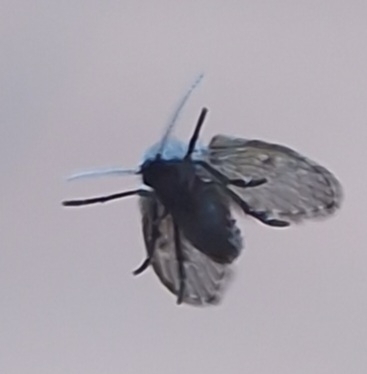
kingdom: Animalia
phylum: Arthropoda
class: Insecta
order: Diptera
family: Psychodidae
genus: Clogmia
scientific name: Clogmia albipunctatus
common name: White-spotted moth fly
